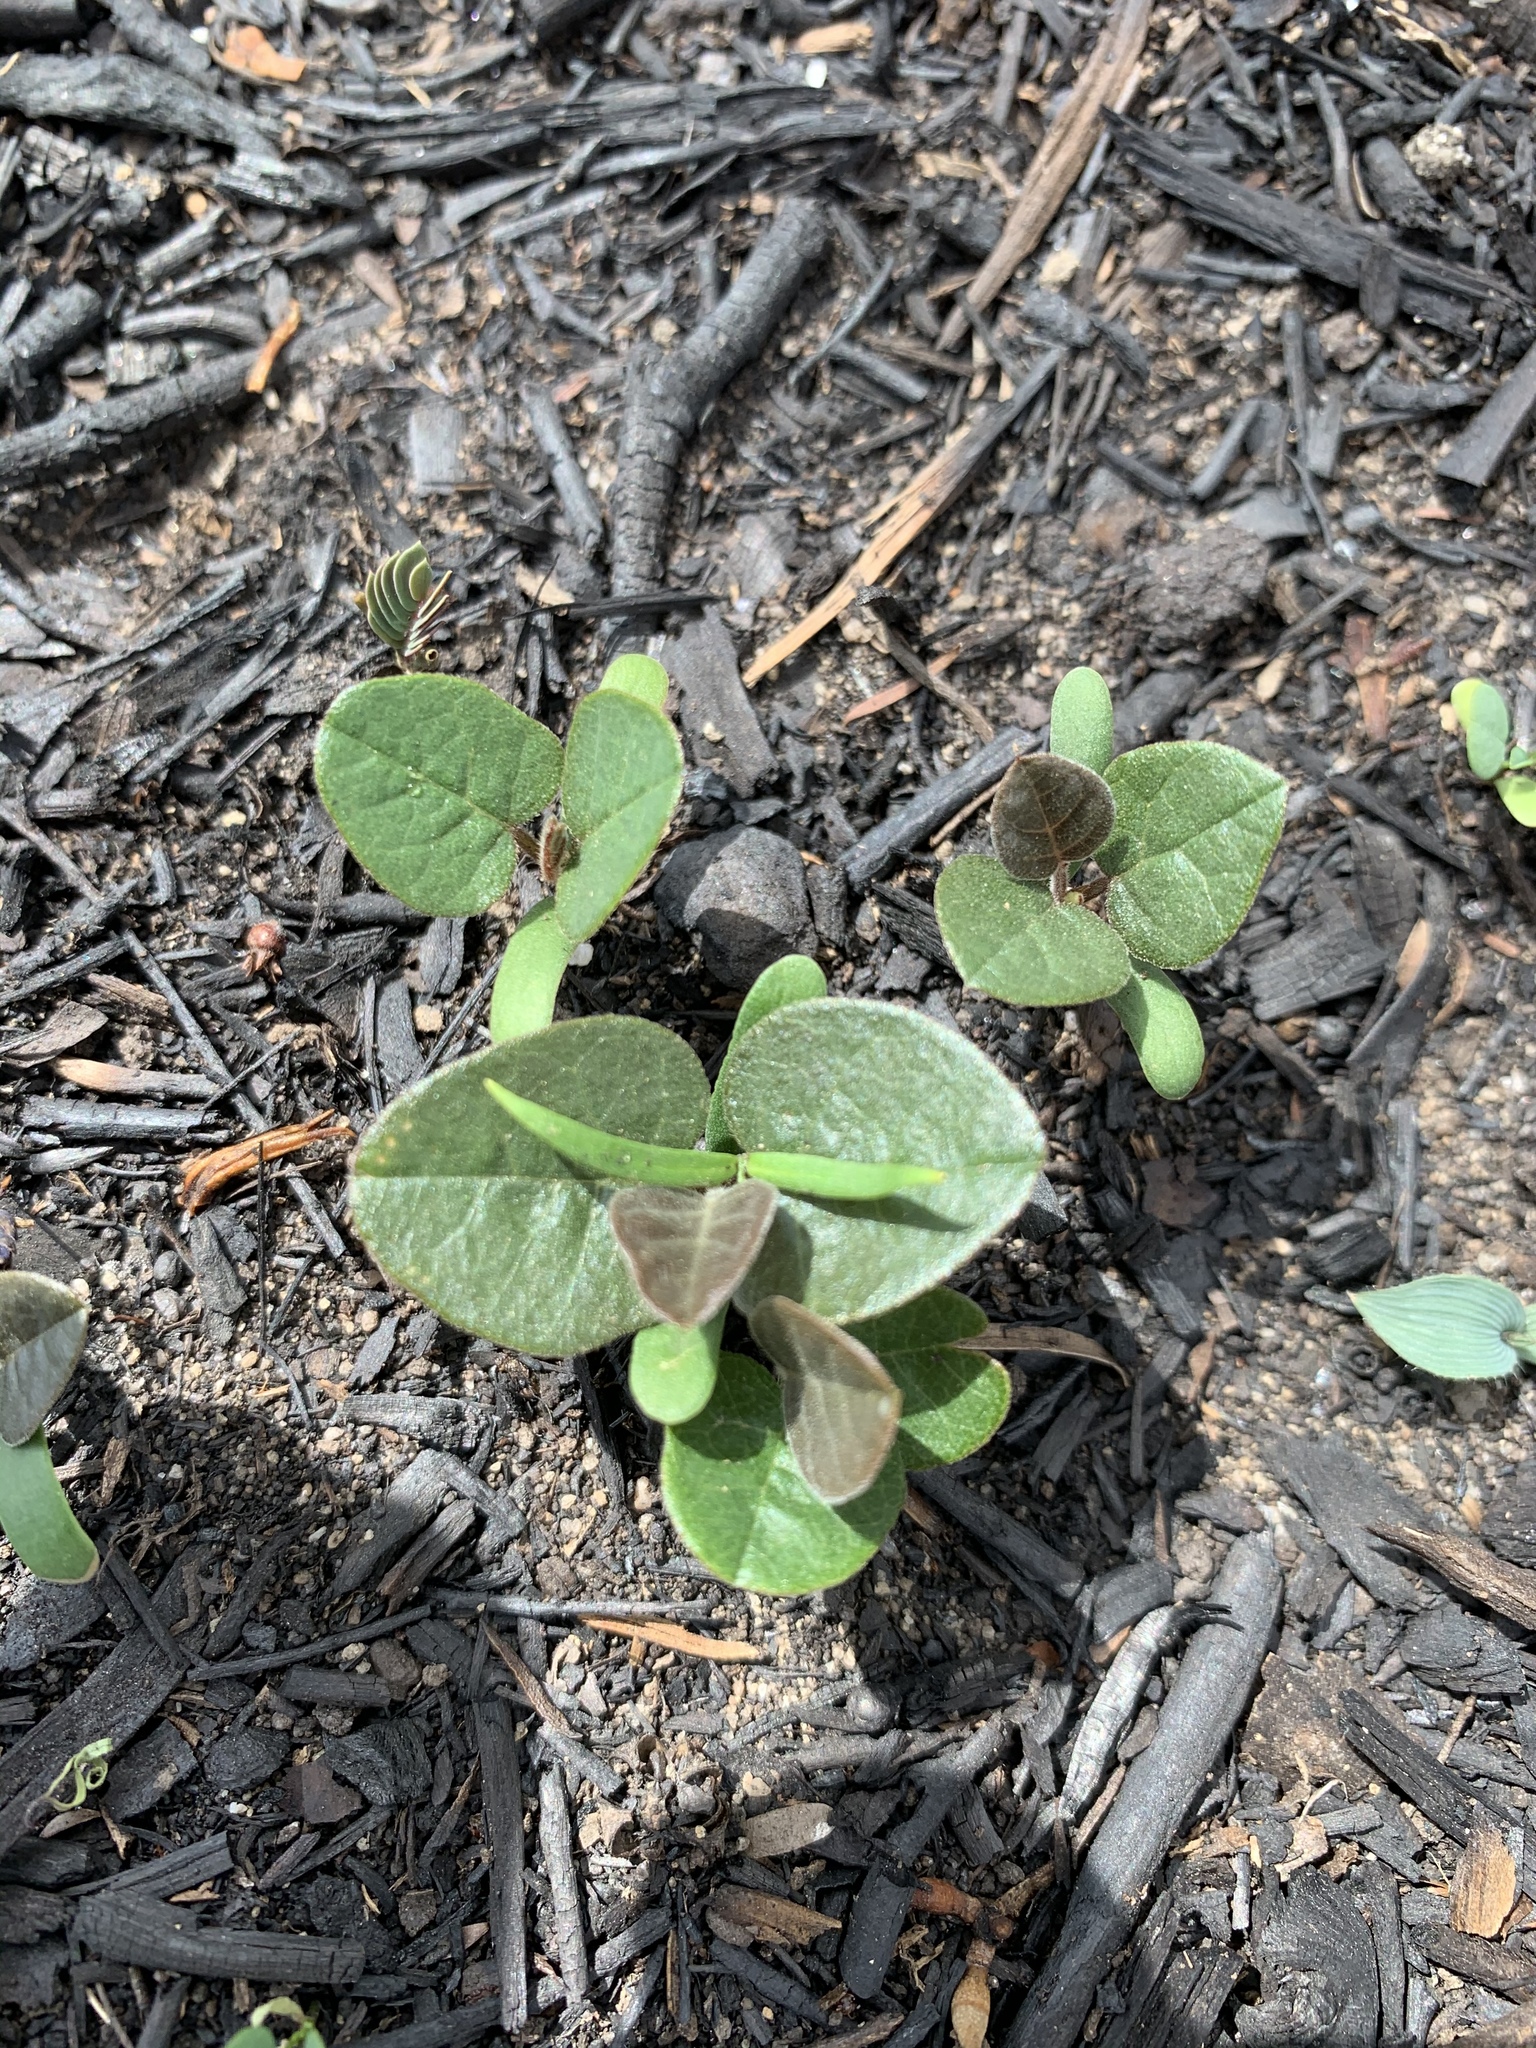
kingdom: Plantae
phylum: Tracheophyta
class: Magnoliopsida
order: Fabales
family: Fabaceae
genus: Hardenbergia
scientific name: Hardenbergia violacea
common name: Coral-pea
